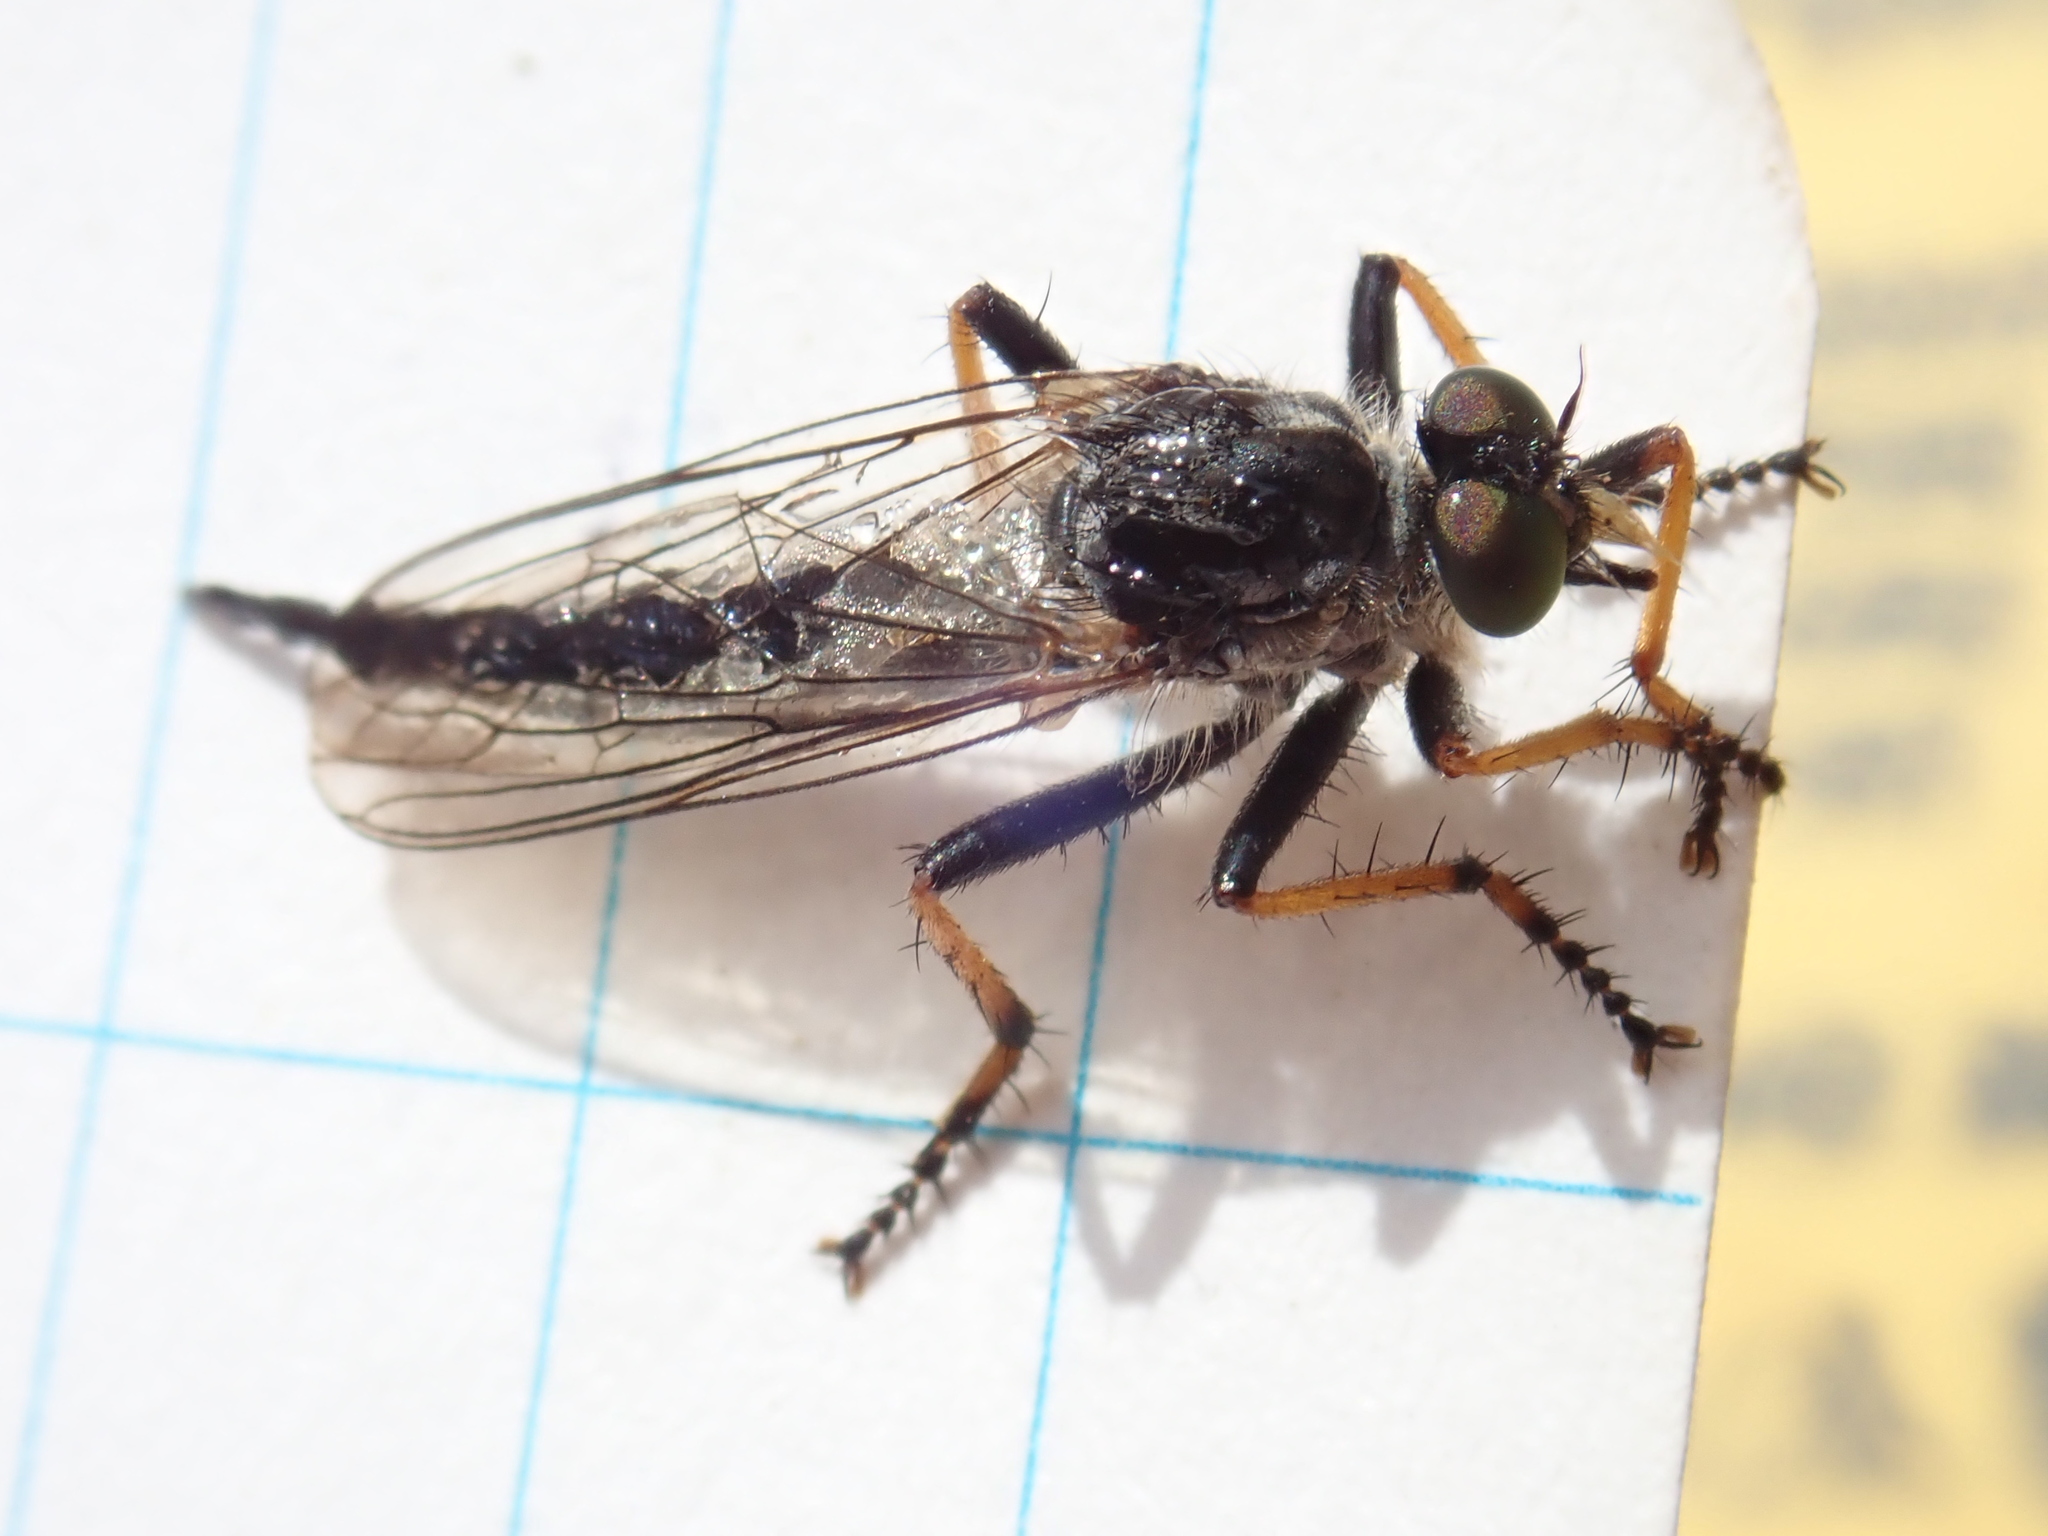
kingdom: Animalia
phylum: Arthropoda
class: Insecta
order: Diptera
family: Asilidae
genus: Neoitamus
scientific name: Neoitamus orphne
